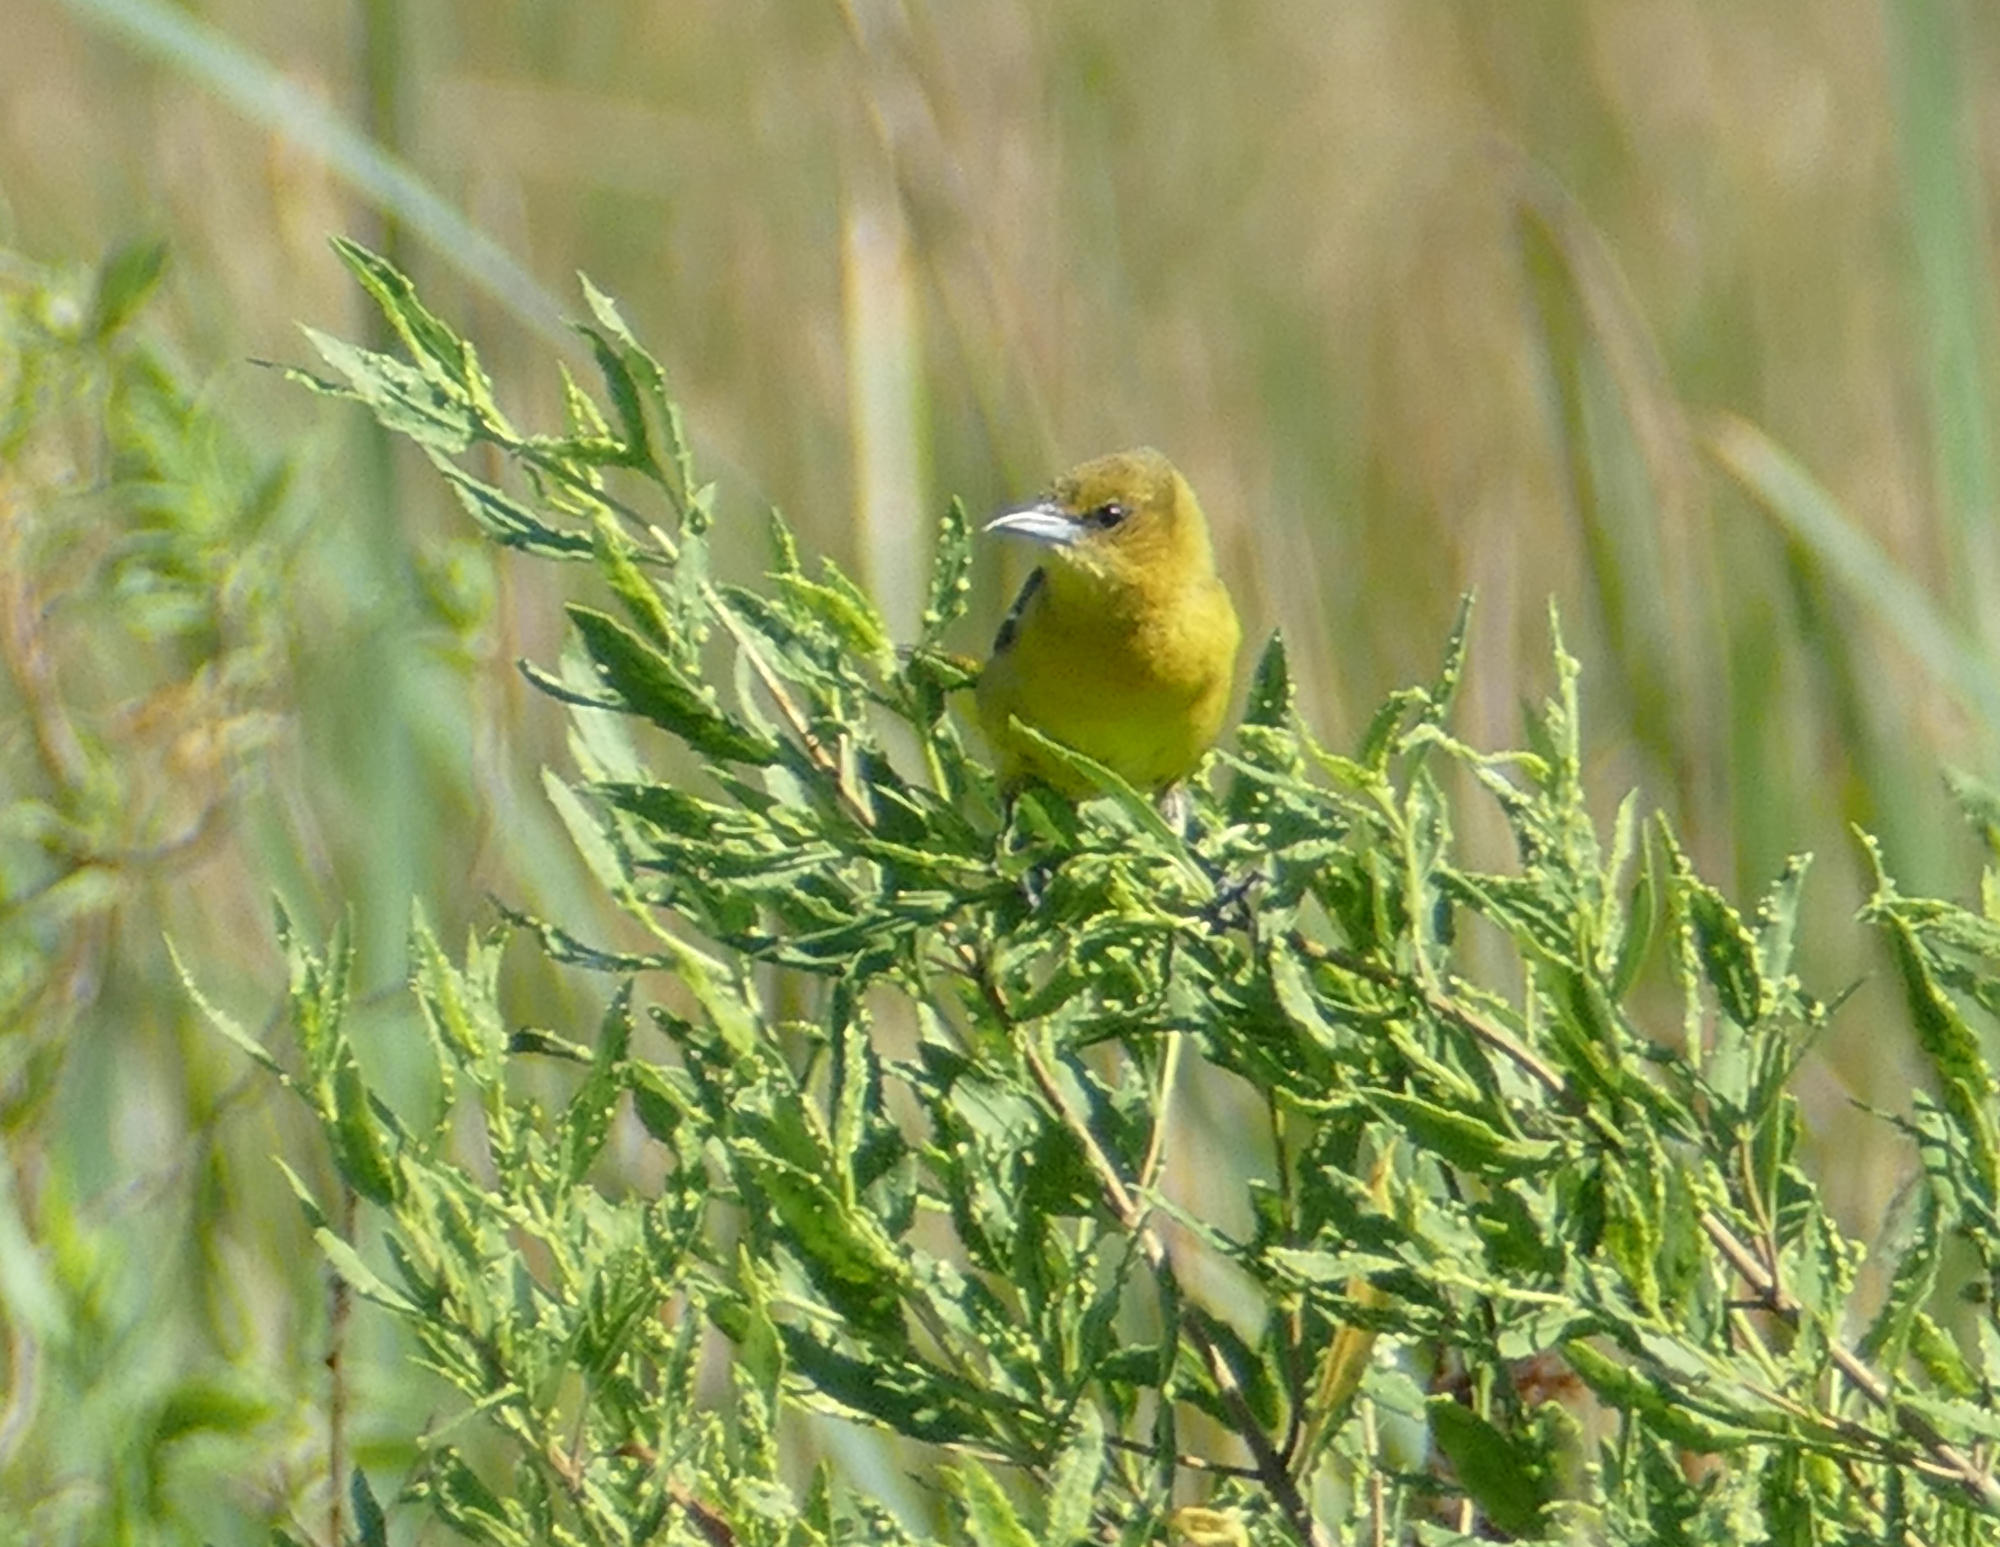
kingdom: Animalia
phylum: Chordata
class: Aves
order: Passeriformes
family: Icteridae
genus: Icterus
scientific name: Icterus spurius
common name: Orchard oriole
